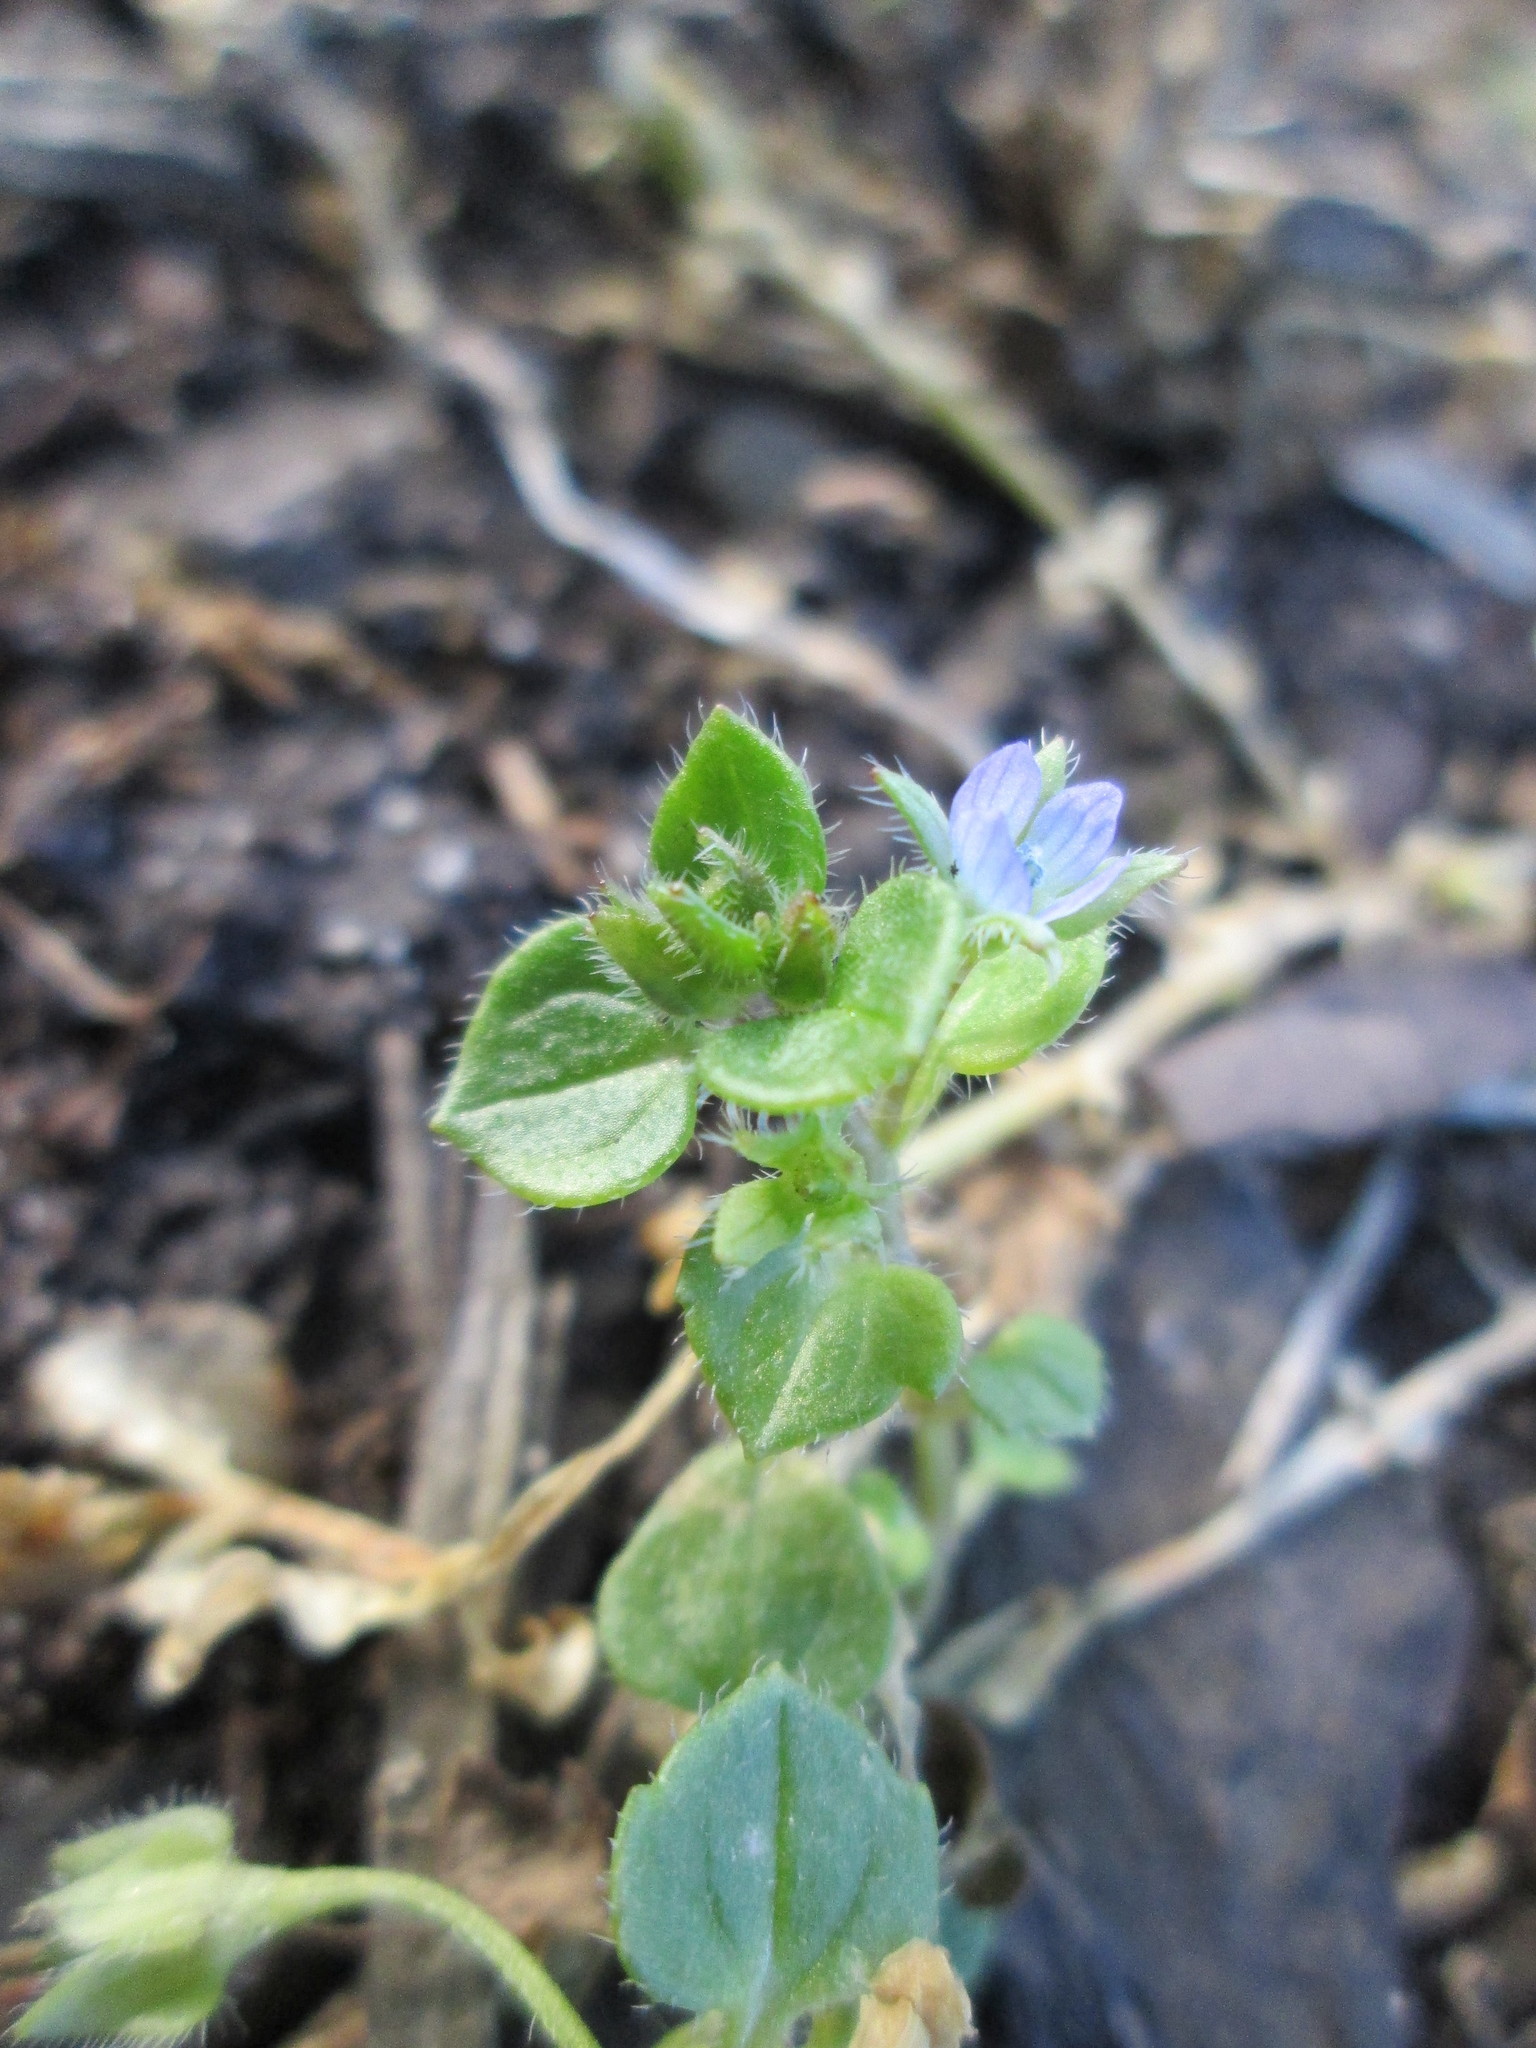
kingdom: Plantae
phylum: Tracheophyta
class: Magnoliopsida
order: Lamiales
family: Plantaginaceae
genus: Veronica
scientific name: Veronica hederifolia
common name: Ivy-leaved speedwell
